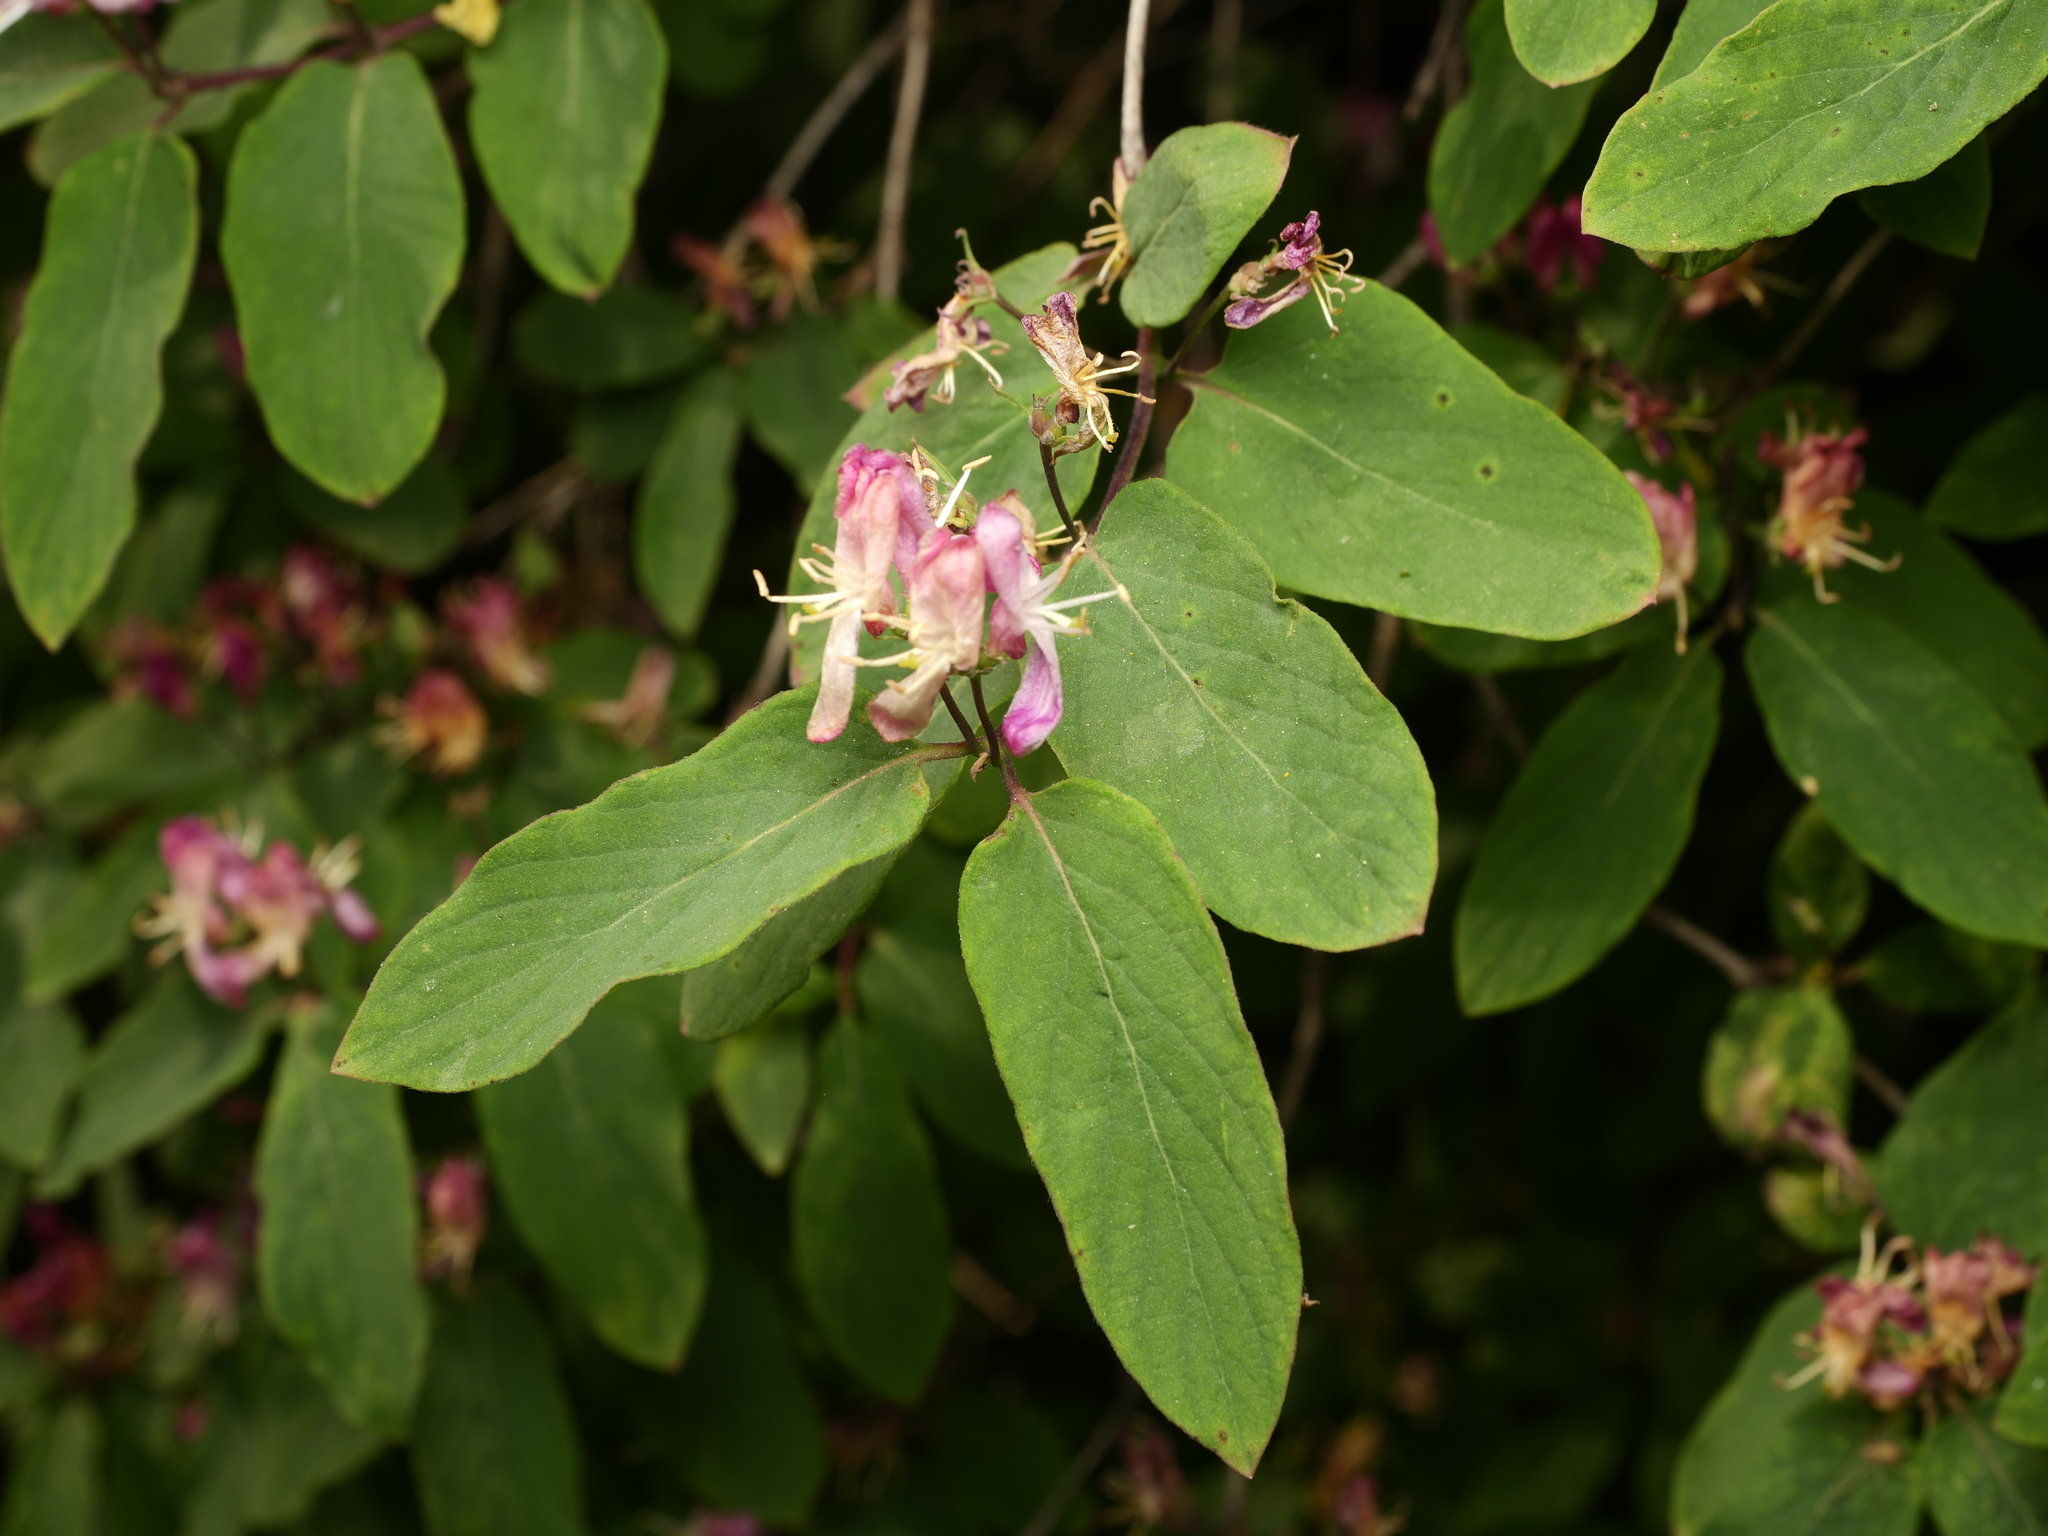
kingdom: Plantae
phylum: Tracheophyta
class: Magnoliopsida
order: Dipsacales
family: Caprifoliaceae
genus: Lonicera
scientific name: Lonicera tatarica
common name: Tatarian honeysuckle
